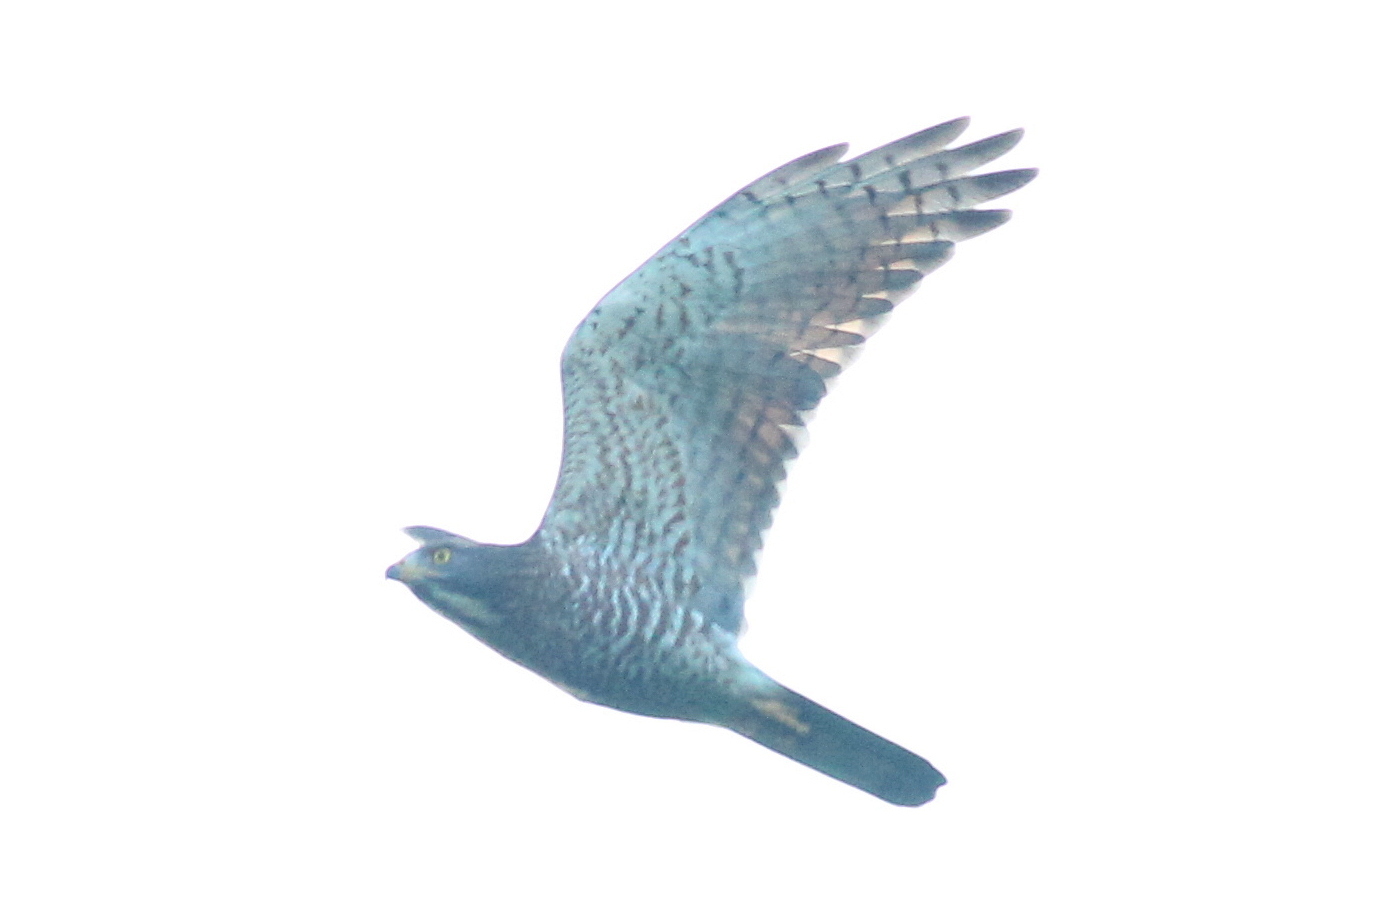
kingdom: Animalia
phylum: Chordata
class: Aves
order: Accipitriformes
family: Accipitridae
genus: Butastur
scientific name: Butastur indicus
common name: Grey-faced buzzard
